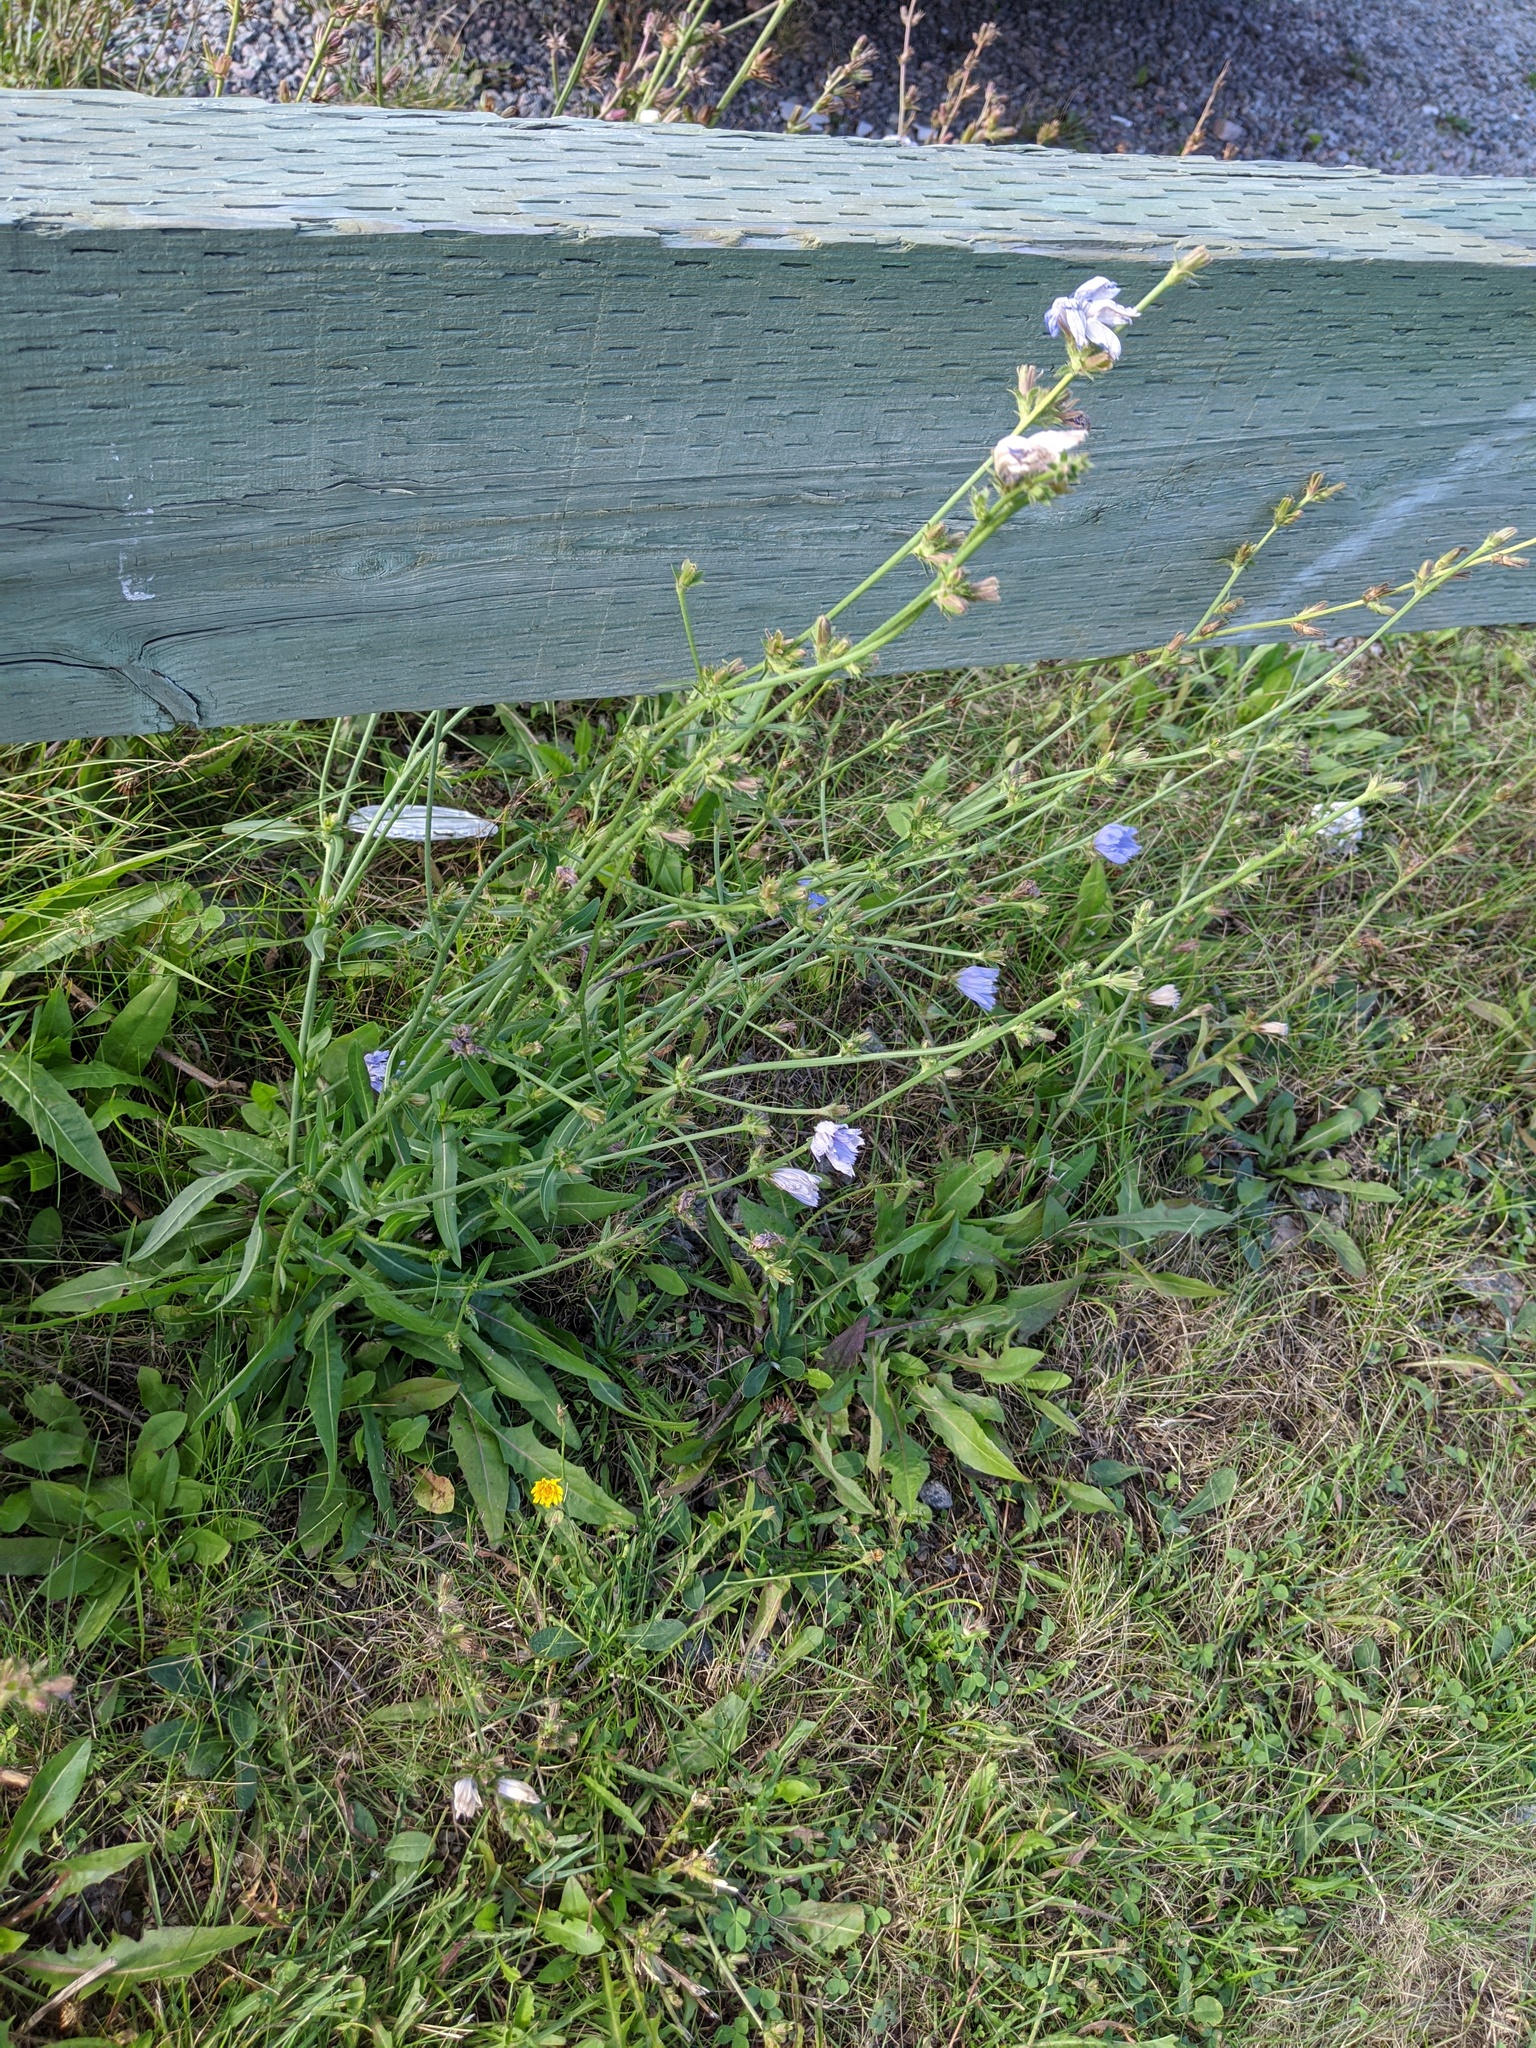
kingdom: Plantae
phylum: Tracheophyta
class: Magnoliopsida
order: Asterales
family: Asteraceae
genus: Cichorium
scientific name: Cichorium intybus
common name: Chicory
